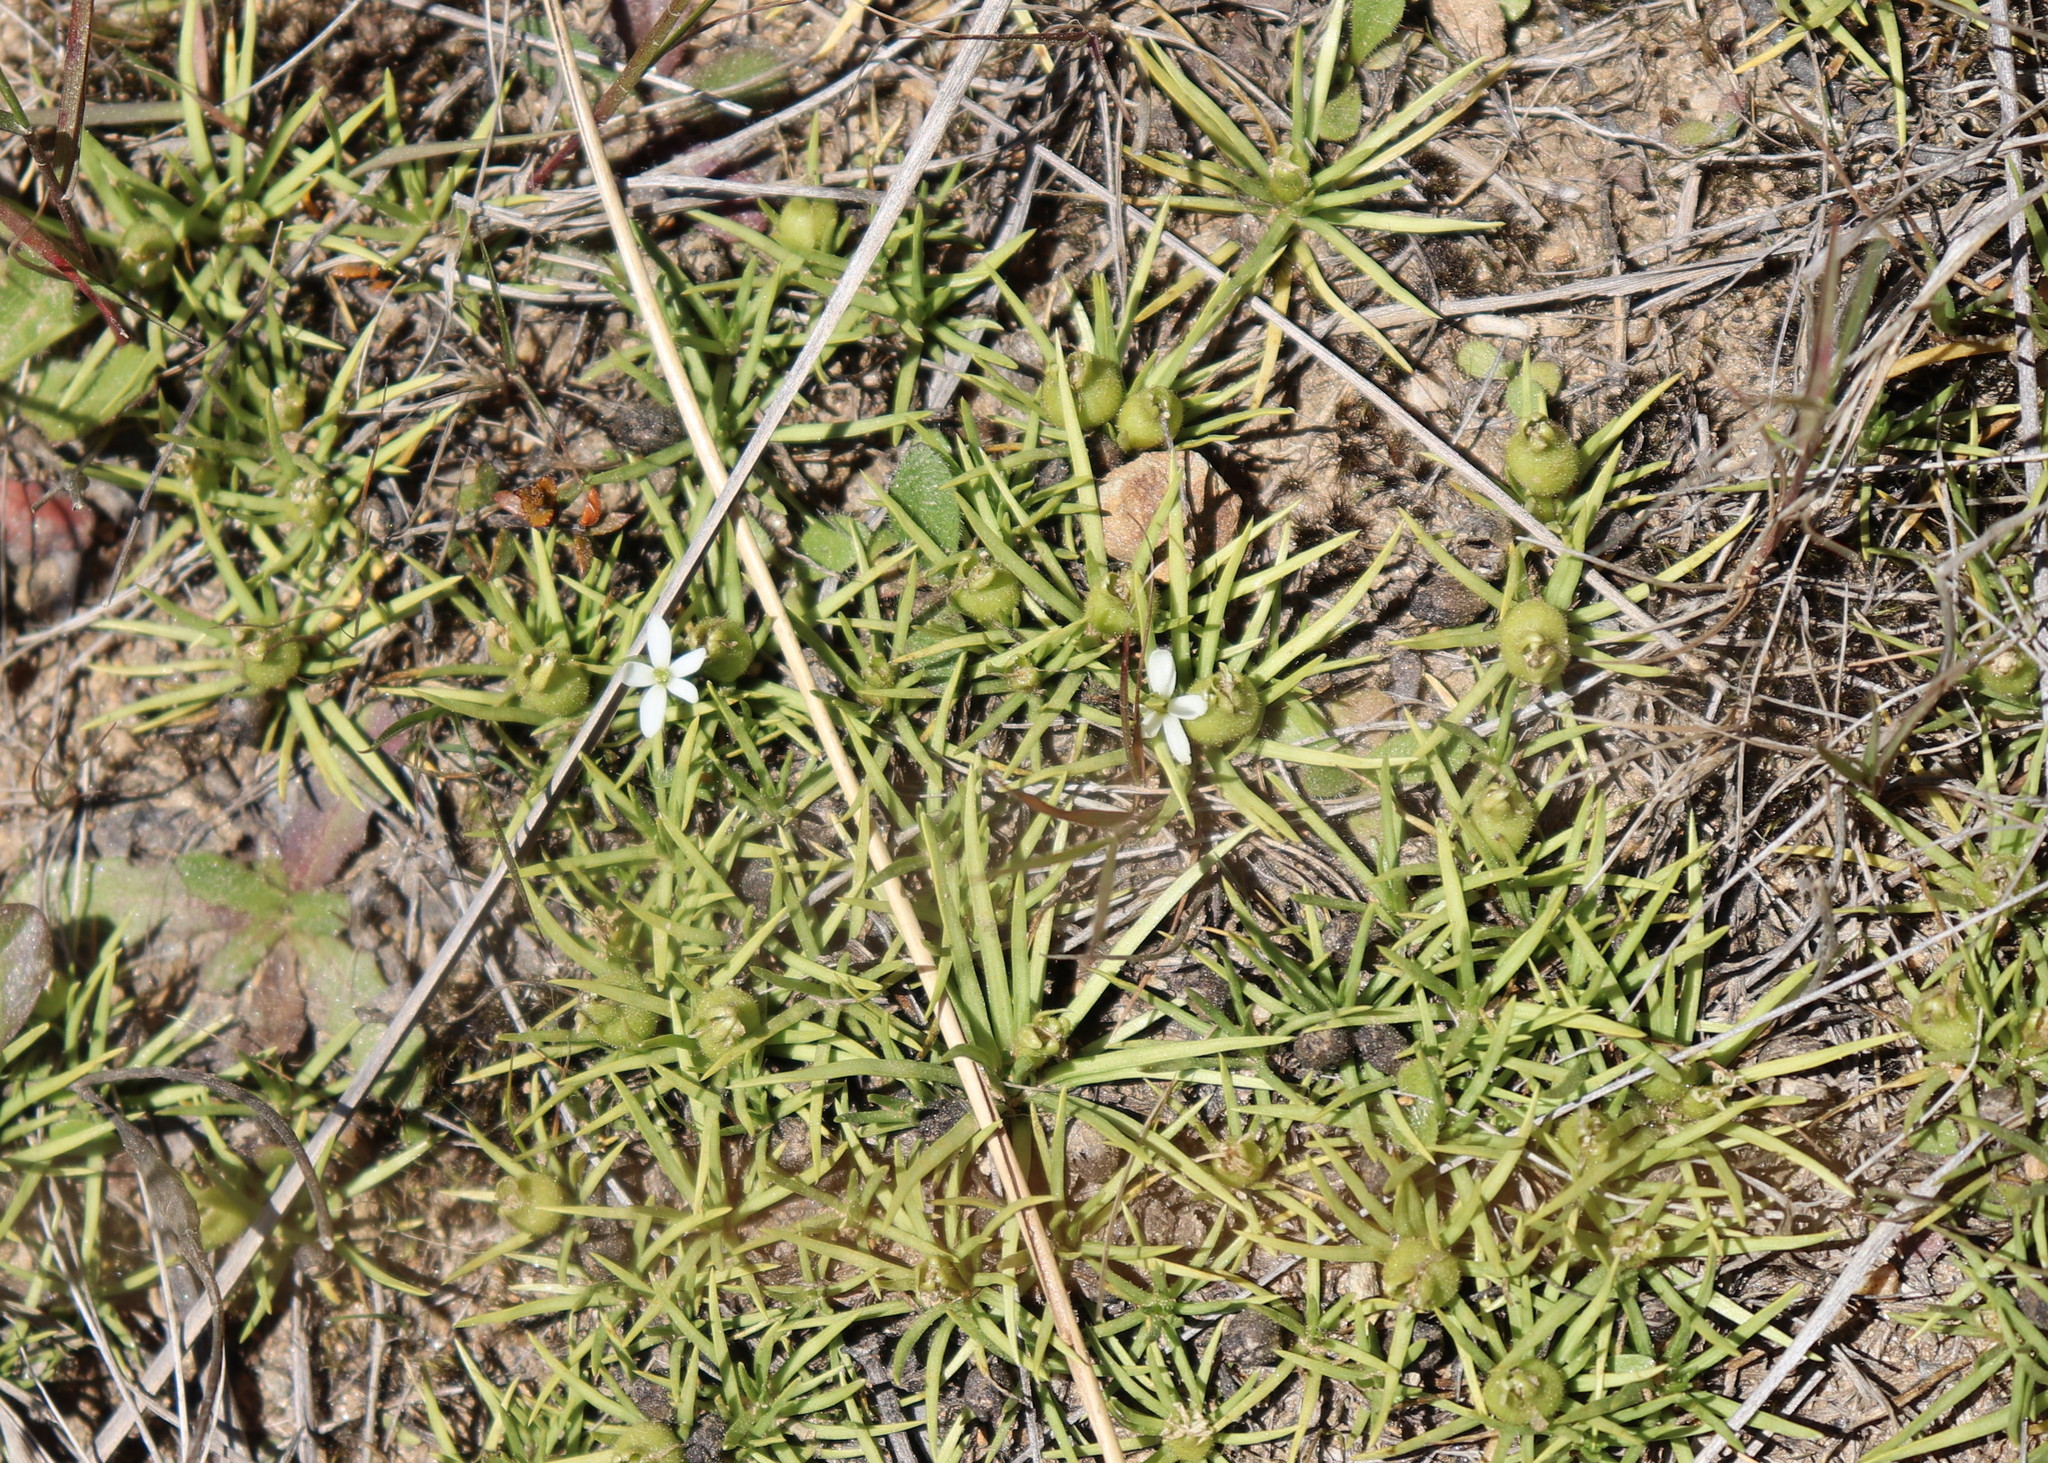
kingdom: Plantae
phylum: Tracheophyta
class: Magnoliopsida
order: Asterales
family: Stylidiaceae
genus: Oreostylidium
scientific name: Oreostylidium subulatum
